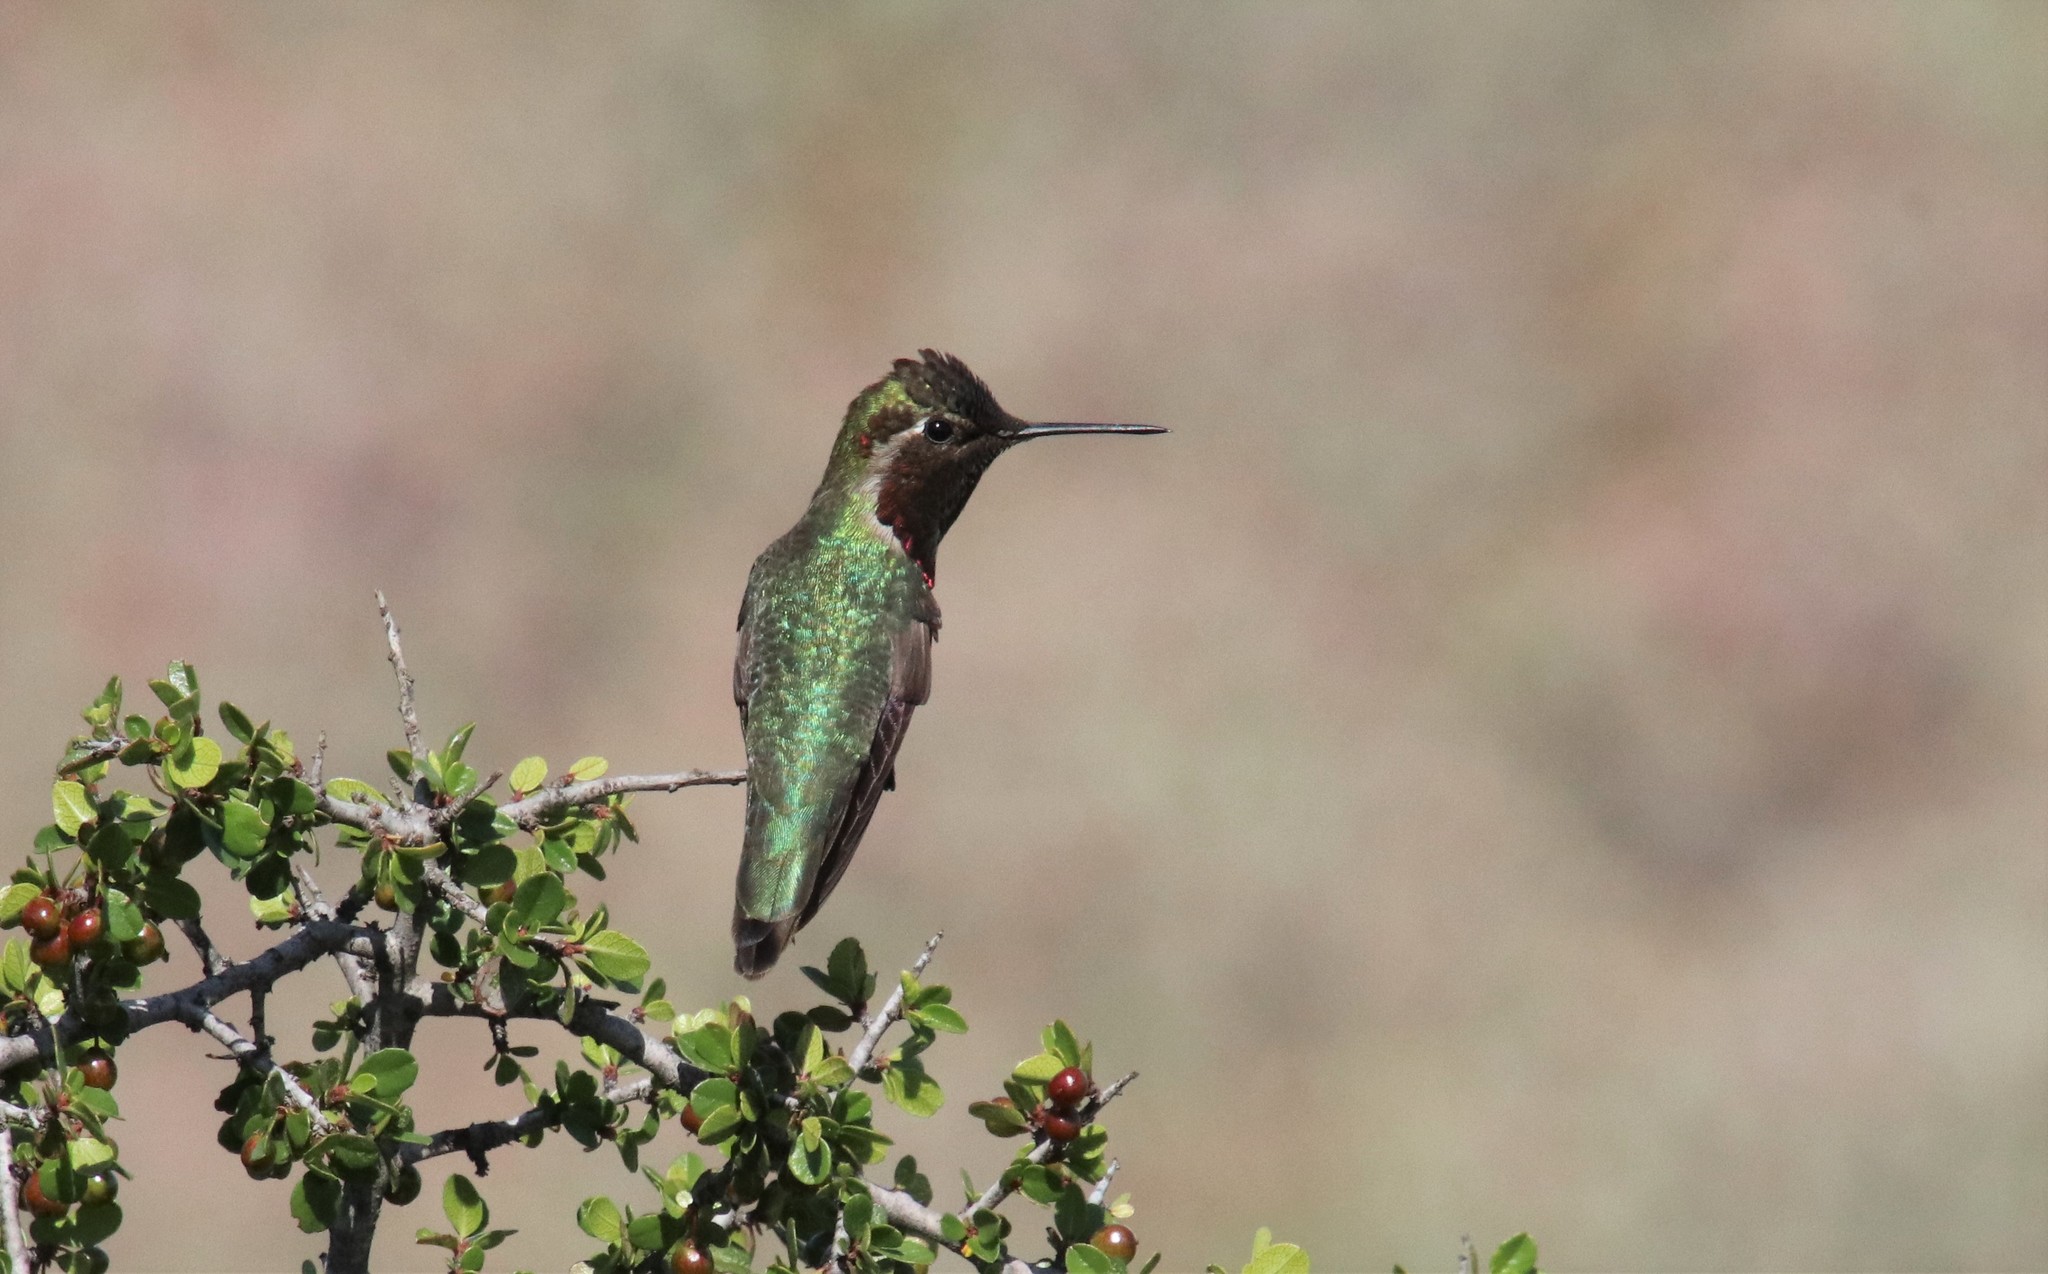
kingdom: Animalia
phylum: Chordata
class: Aves
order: Apodiformes
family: Trochilidae
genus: Calypte
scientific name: Calypte anna
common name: Anna's hummingbird
